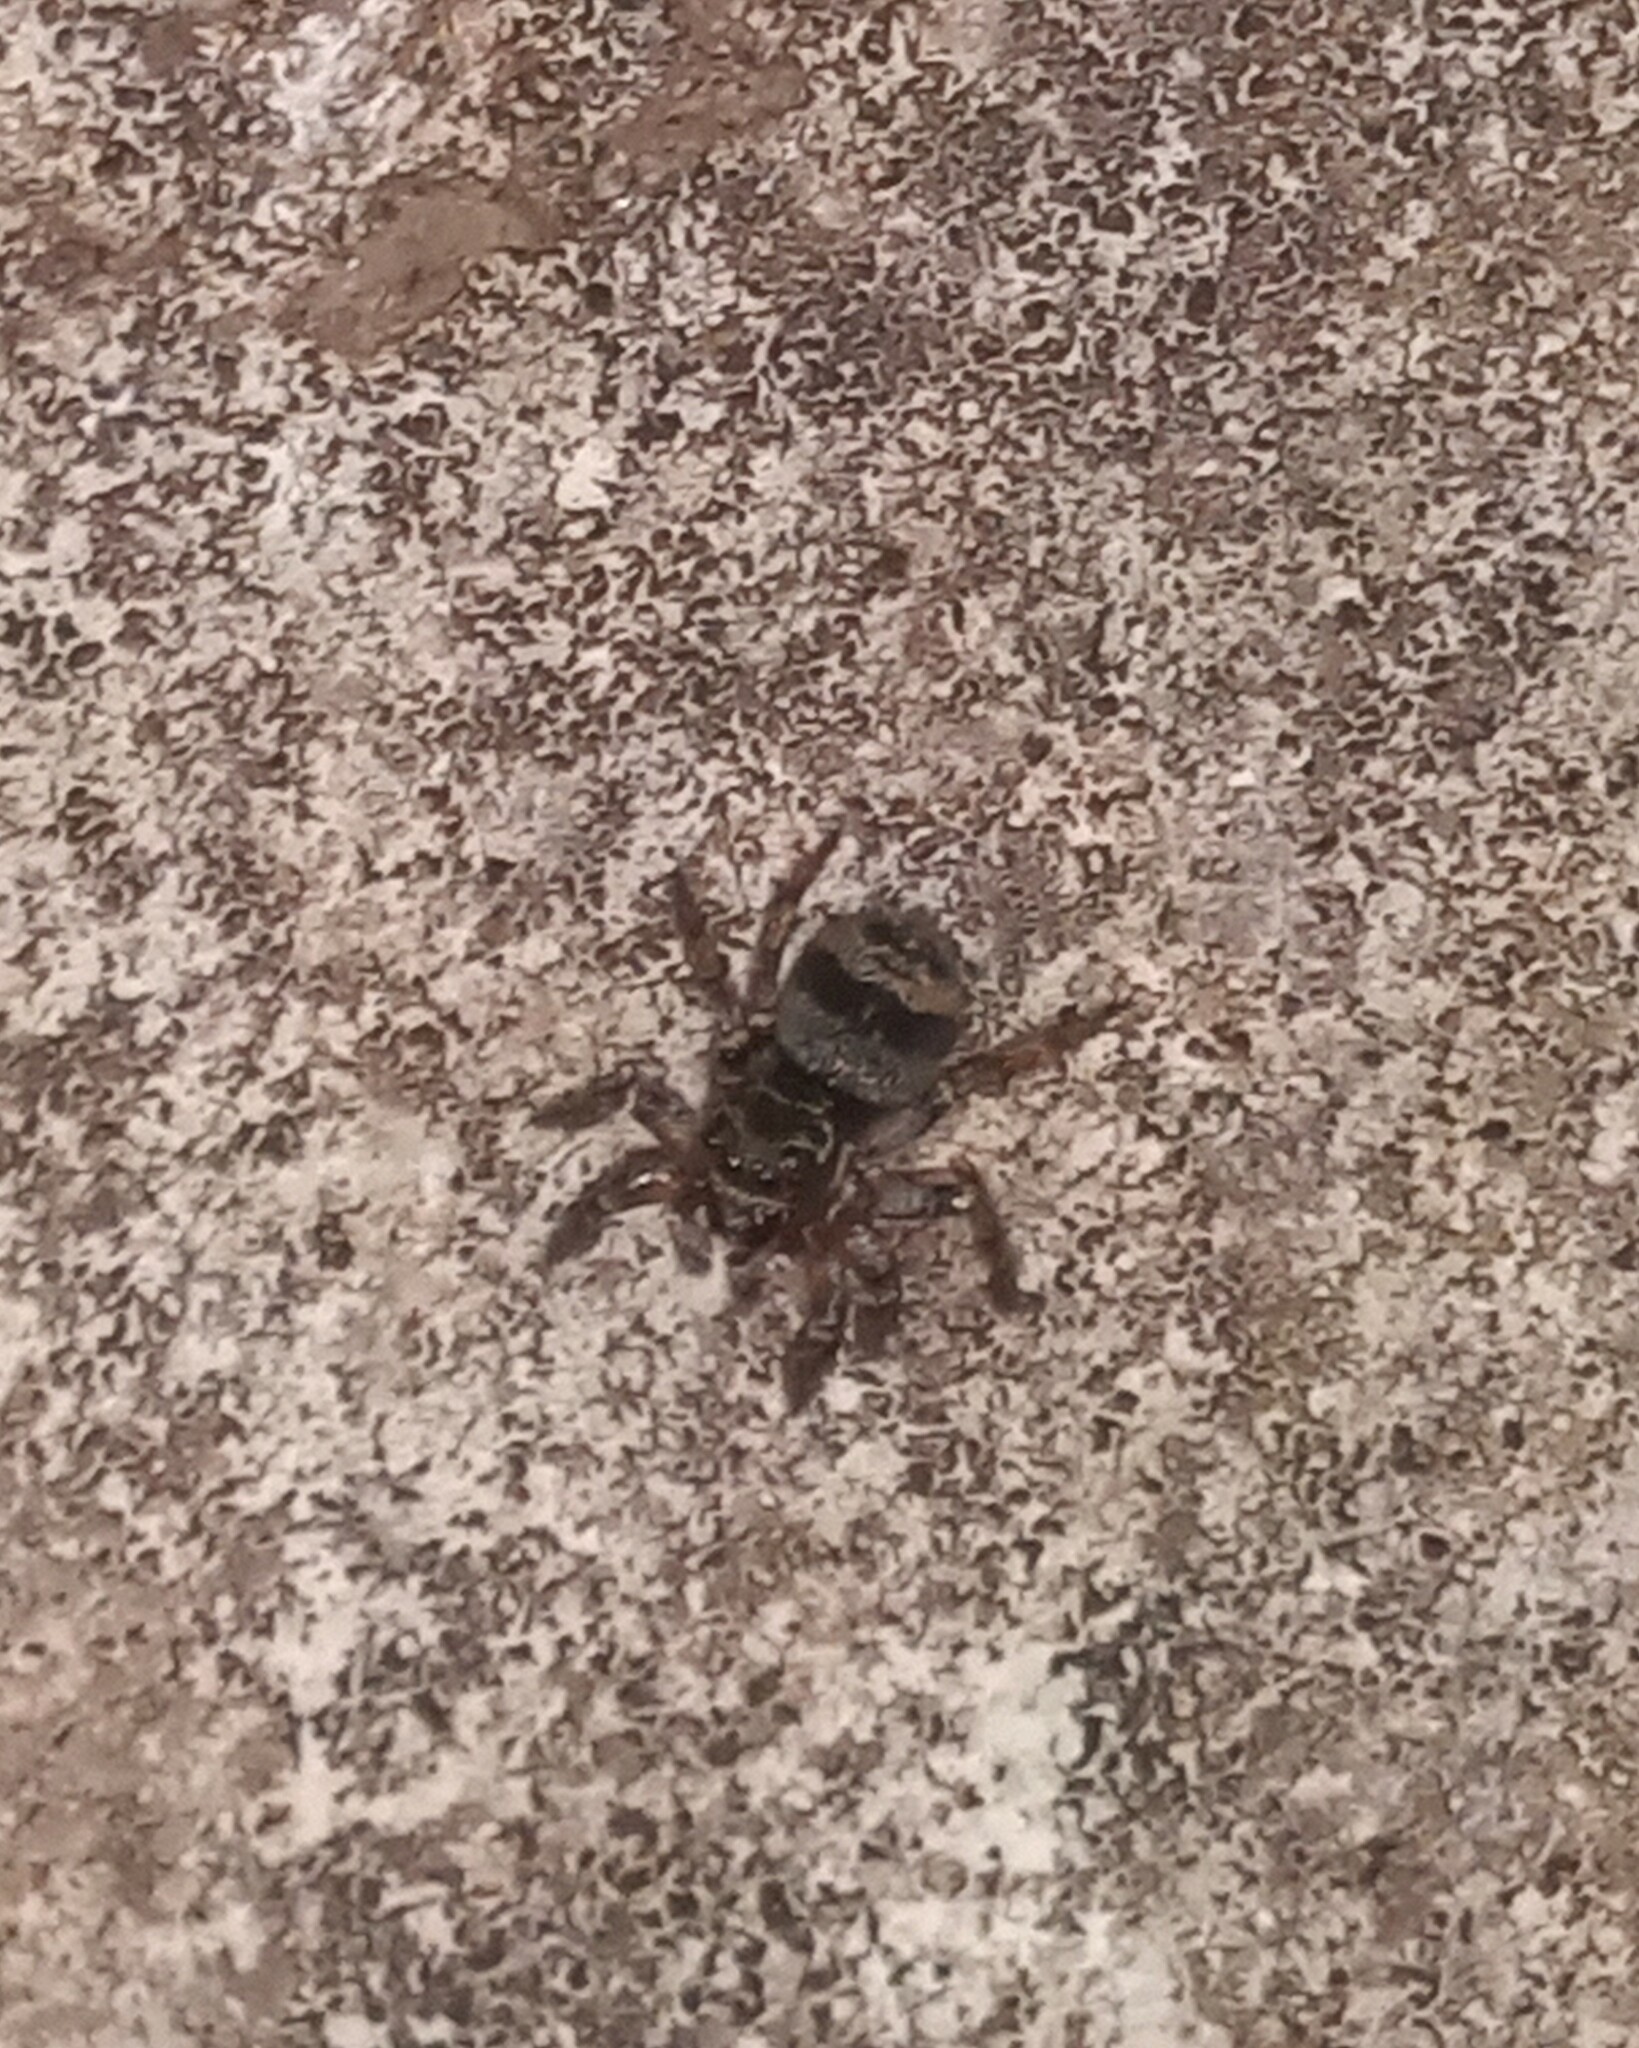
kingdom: Animalia
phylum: Arthropoda
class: Arachnida
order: Araneae
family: Salticidae
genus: Corythalia
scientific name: Corythalia conferta
